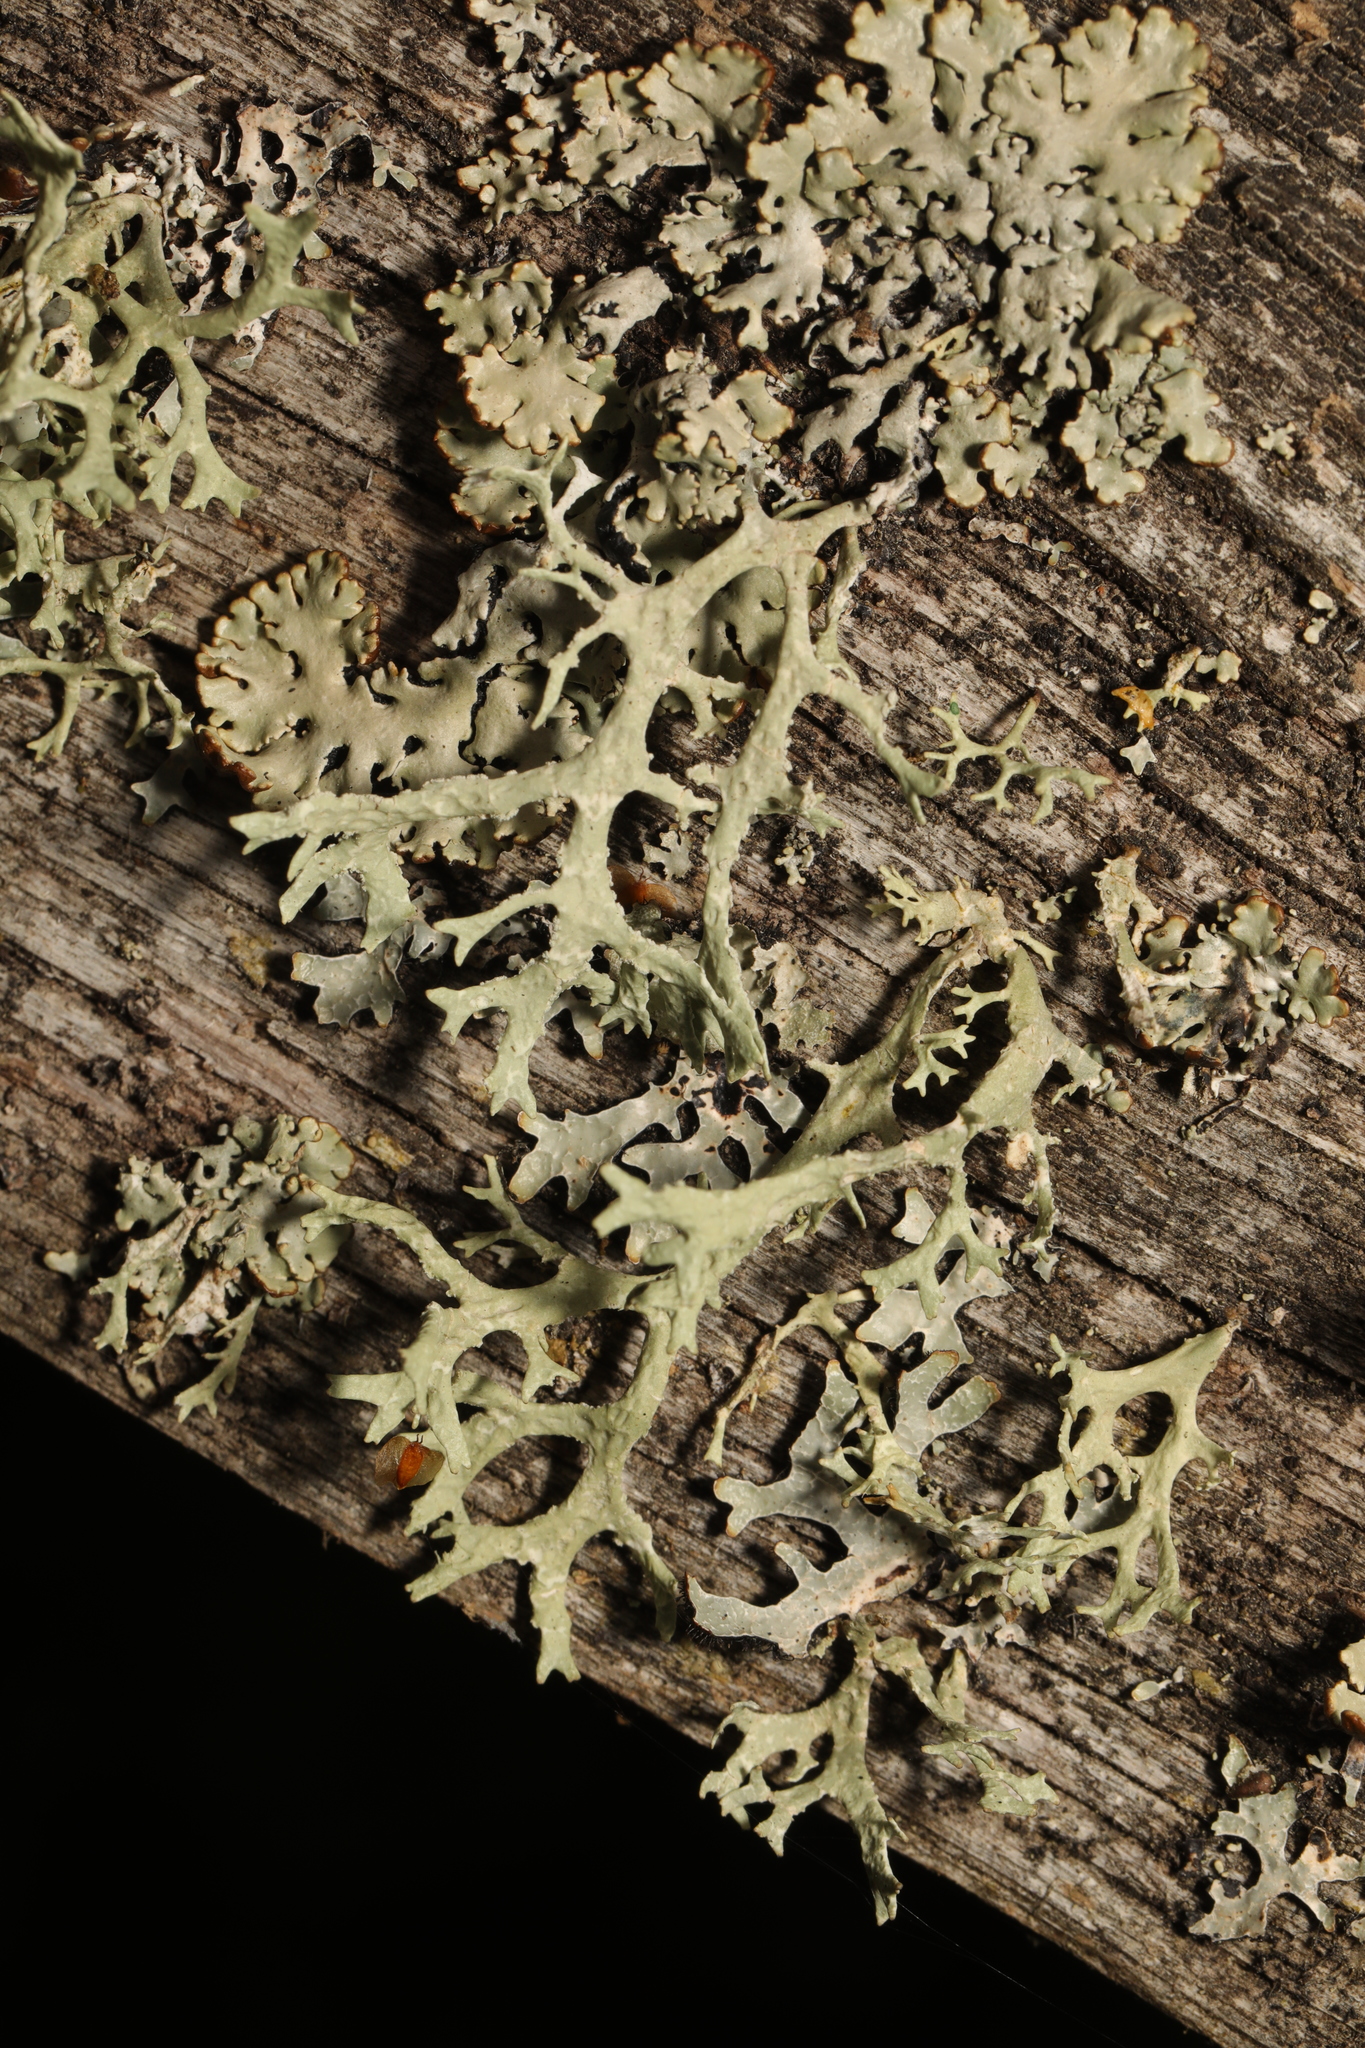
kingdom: Fungi
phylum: Ascomycota
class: Lecanoromycetes
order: Lecanorales
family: Parmeliaceae
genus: Evernia
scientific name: Evernia prunastri
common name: Oak moss
